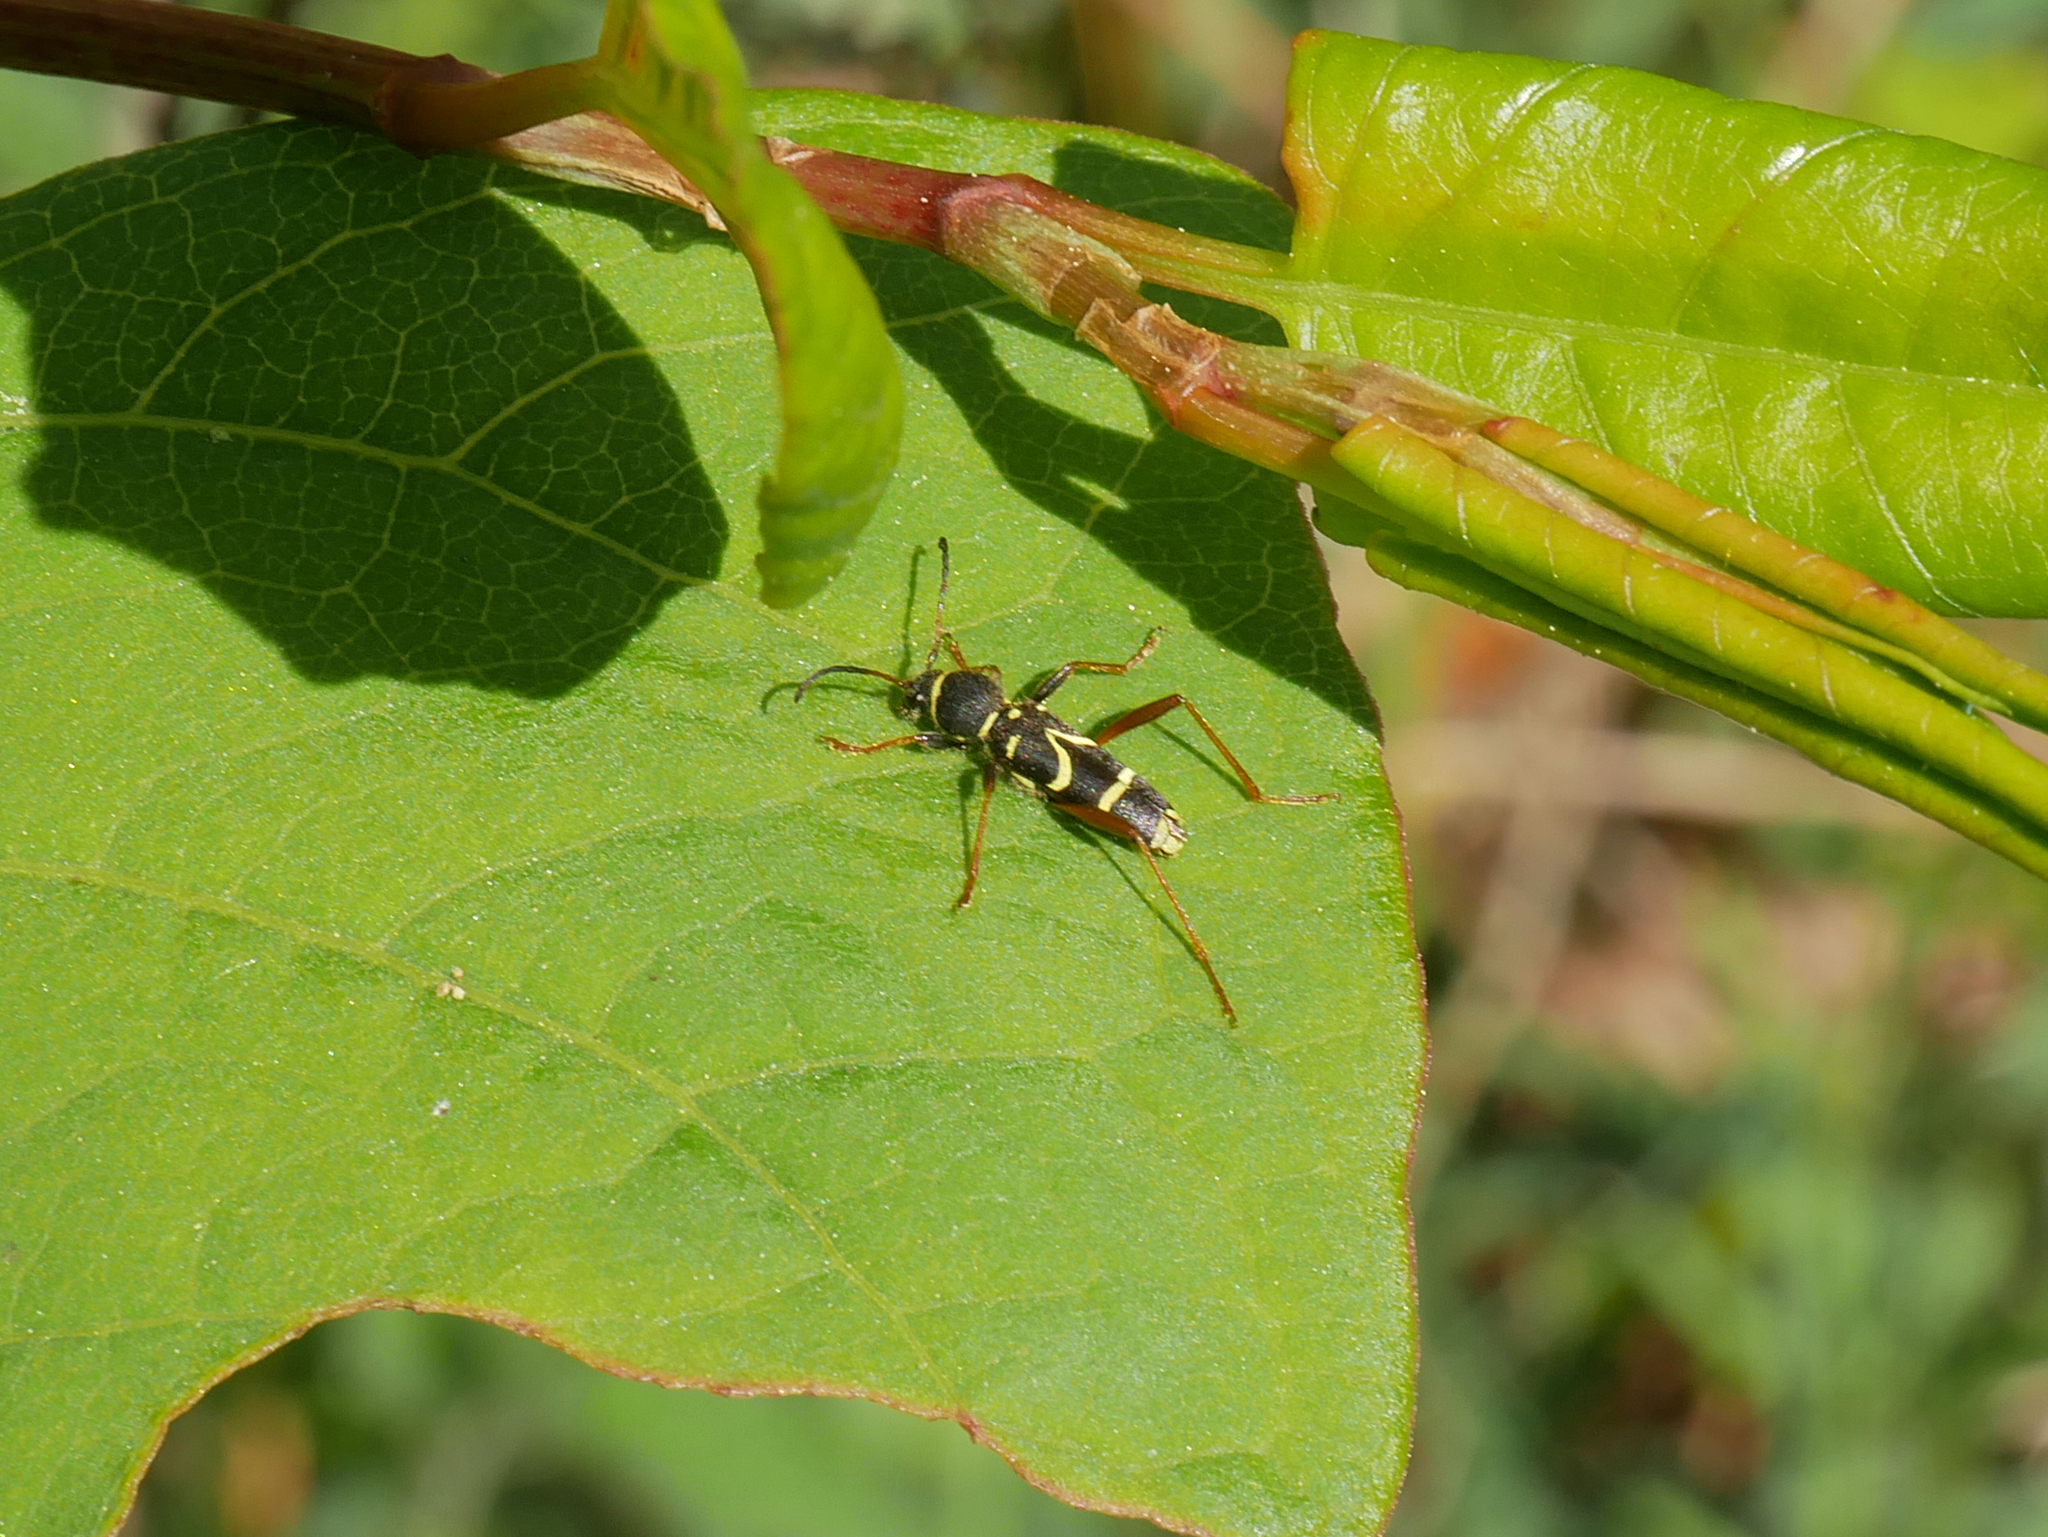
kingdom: Animalia
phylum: Arthropoda
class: Insecta
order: Coleoptera
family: Cerambycidae
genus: Clytus
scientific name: Clytus arietis
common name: Wasp beetle
